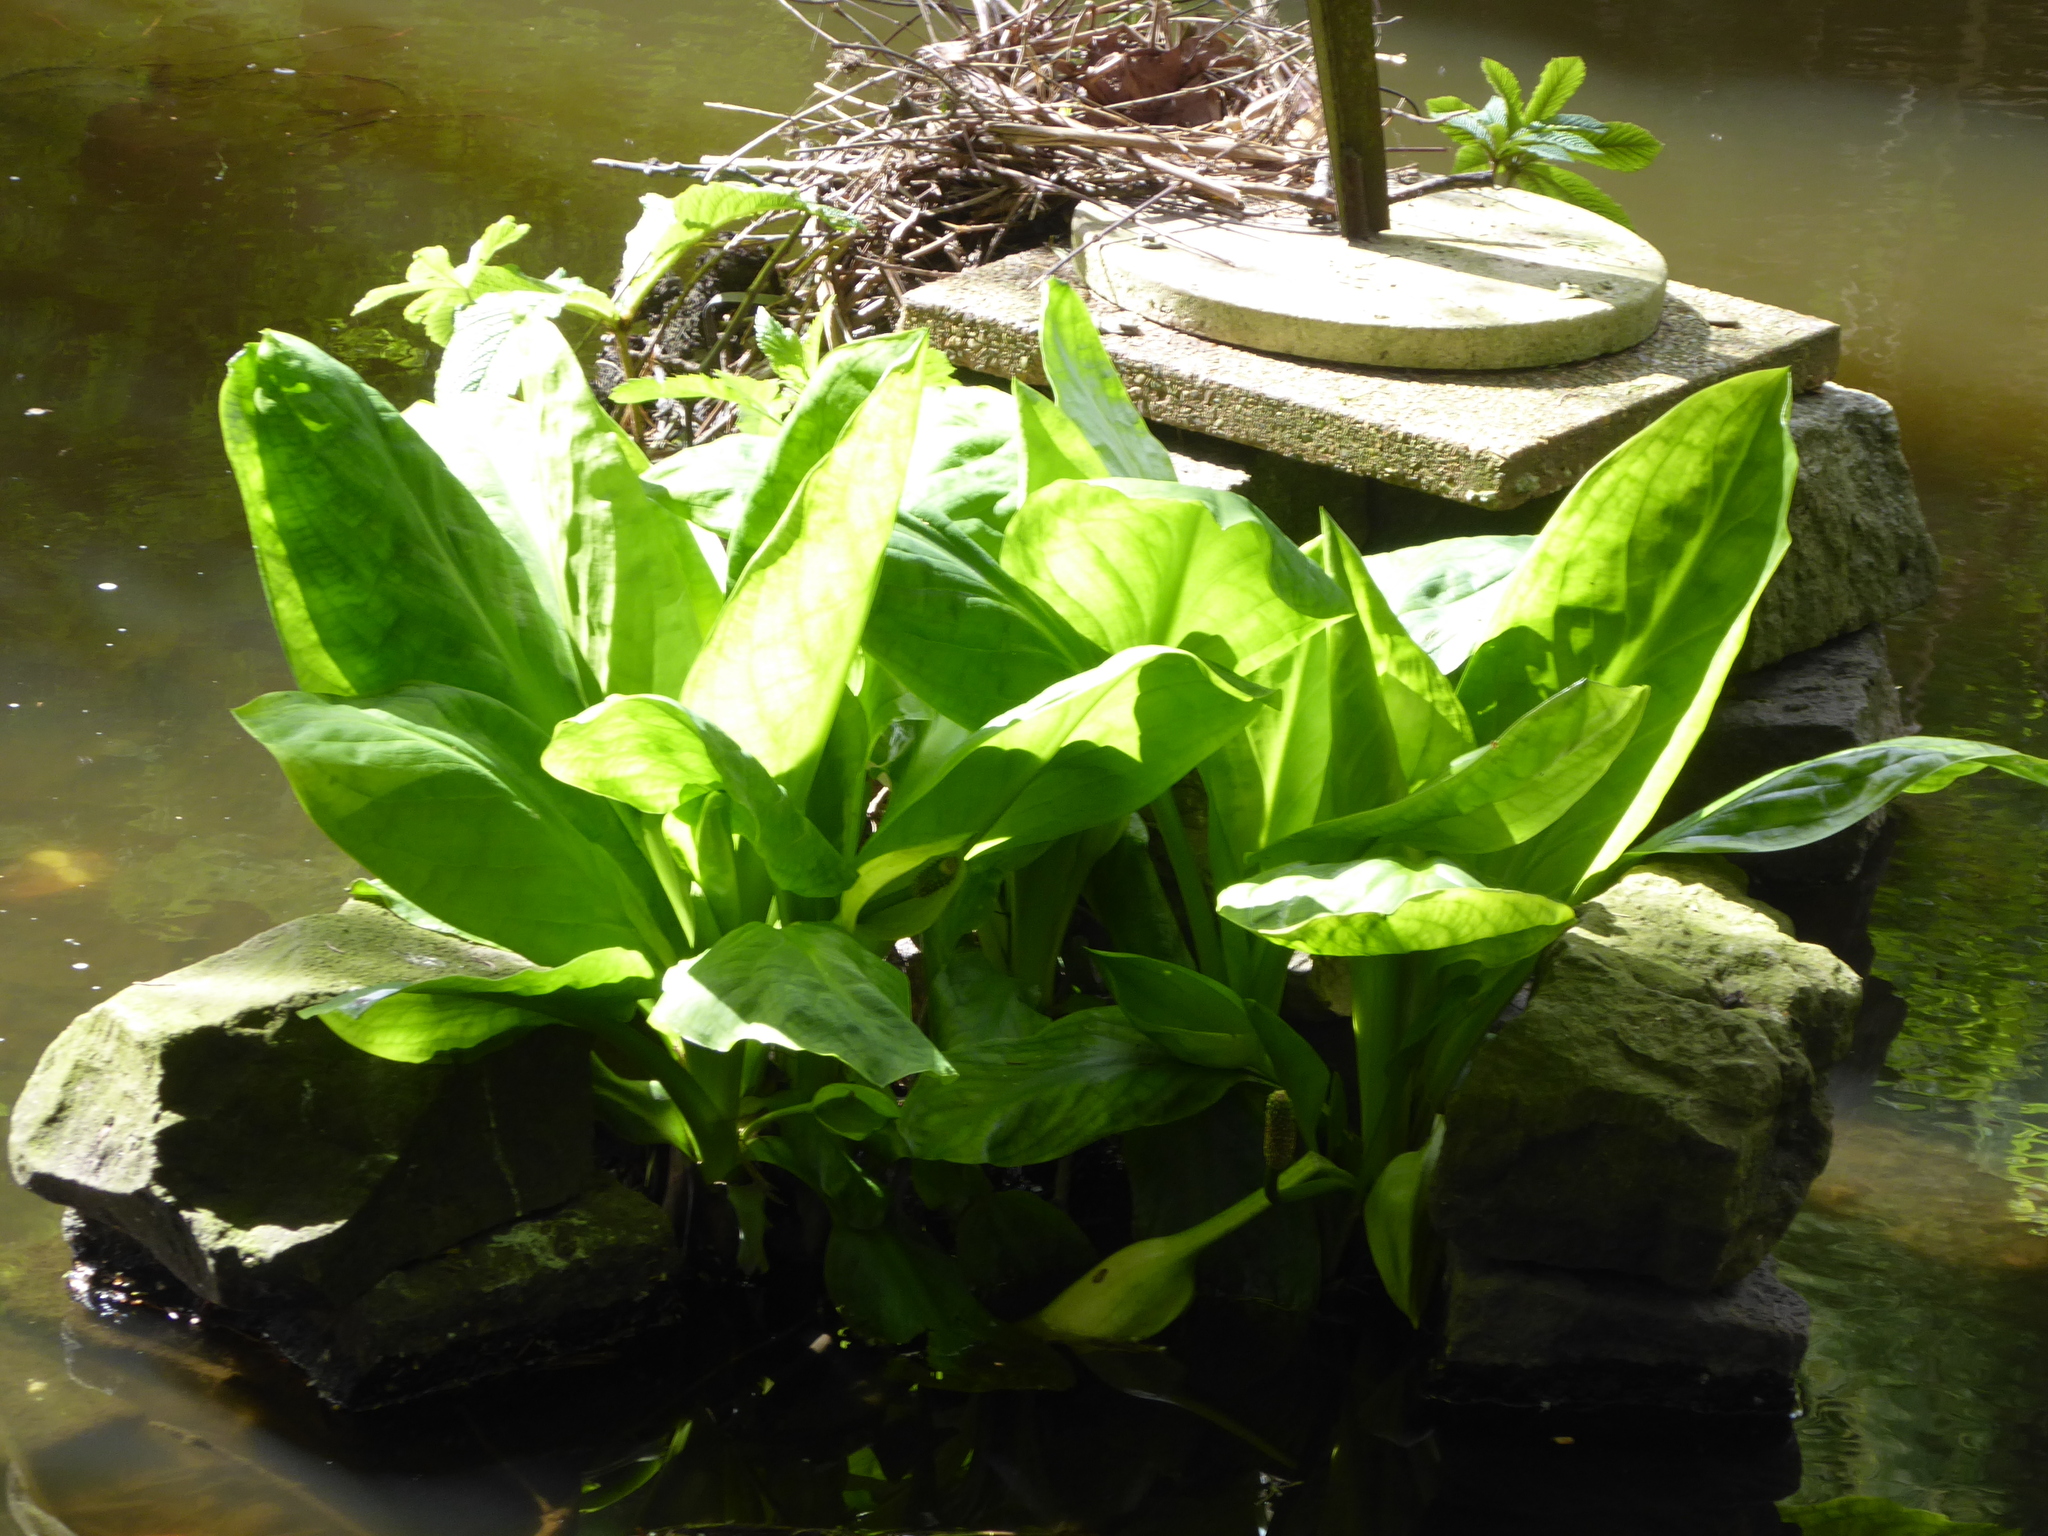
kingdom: Plantae
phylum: Tracheophyta
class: Liliopsida
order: Alismatales
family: Araceae
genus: Lysichiton
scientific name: Lysichiton americanus
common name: American skunk cabbage
